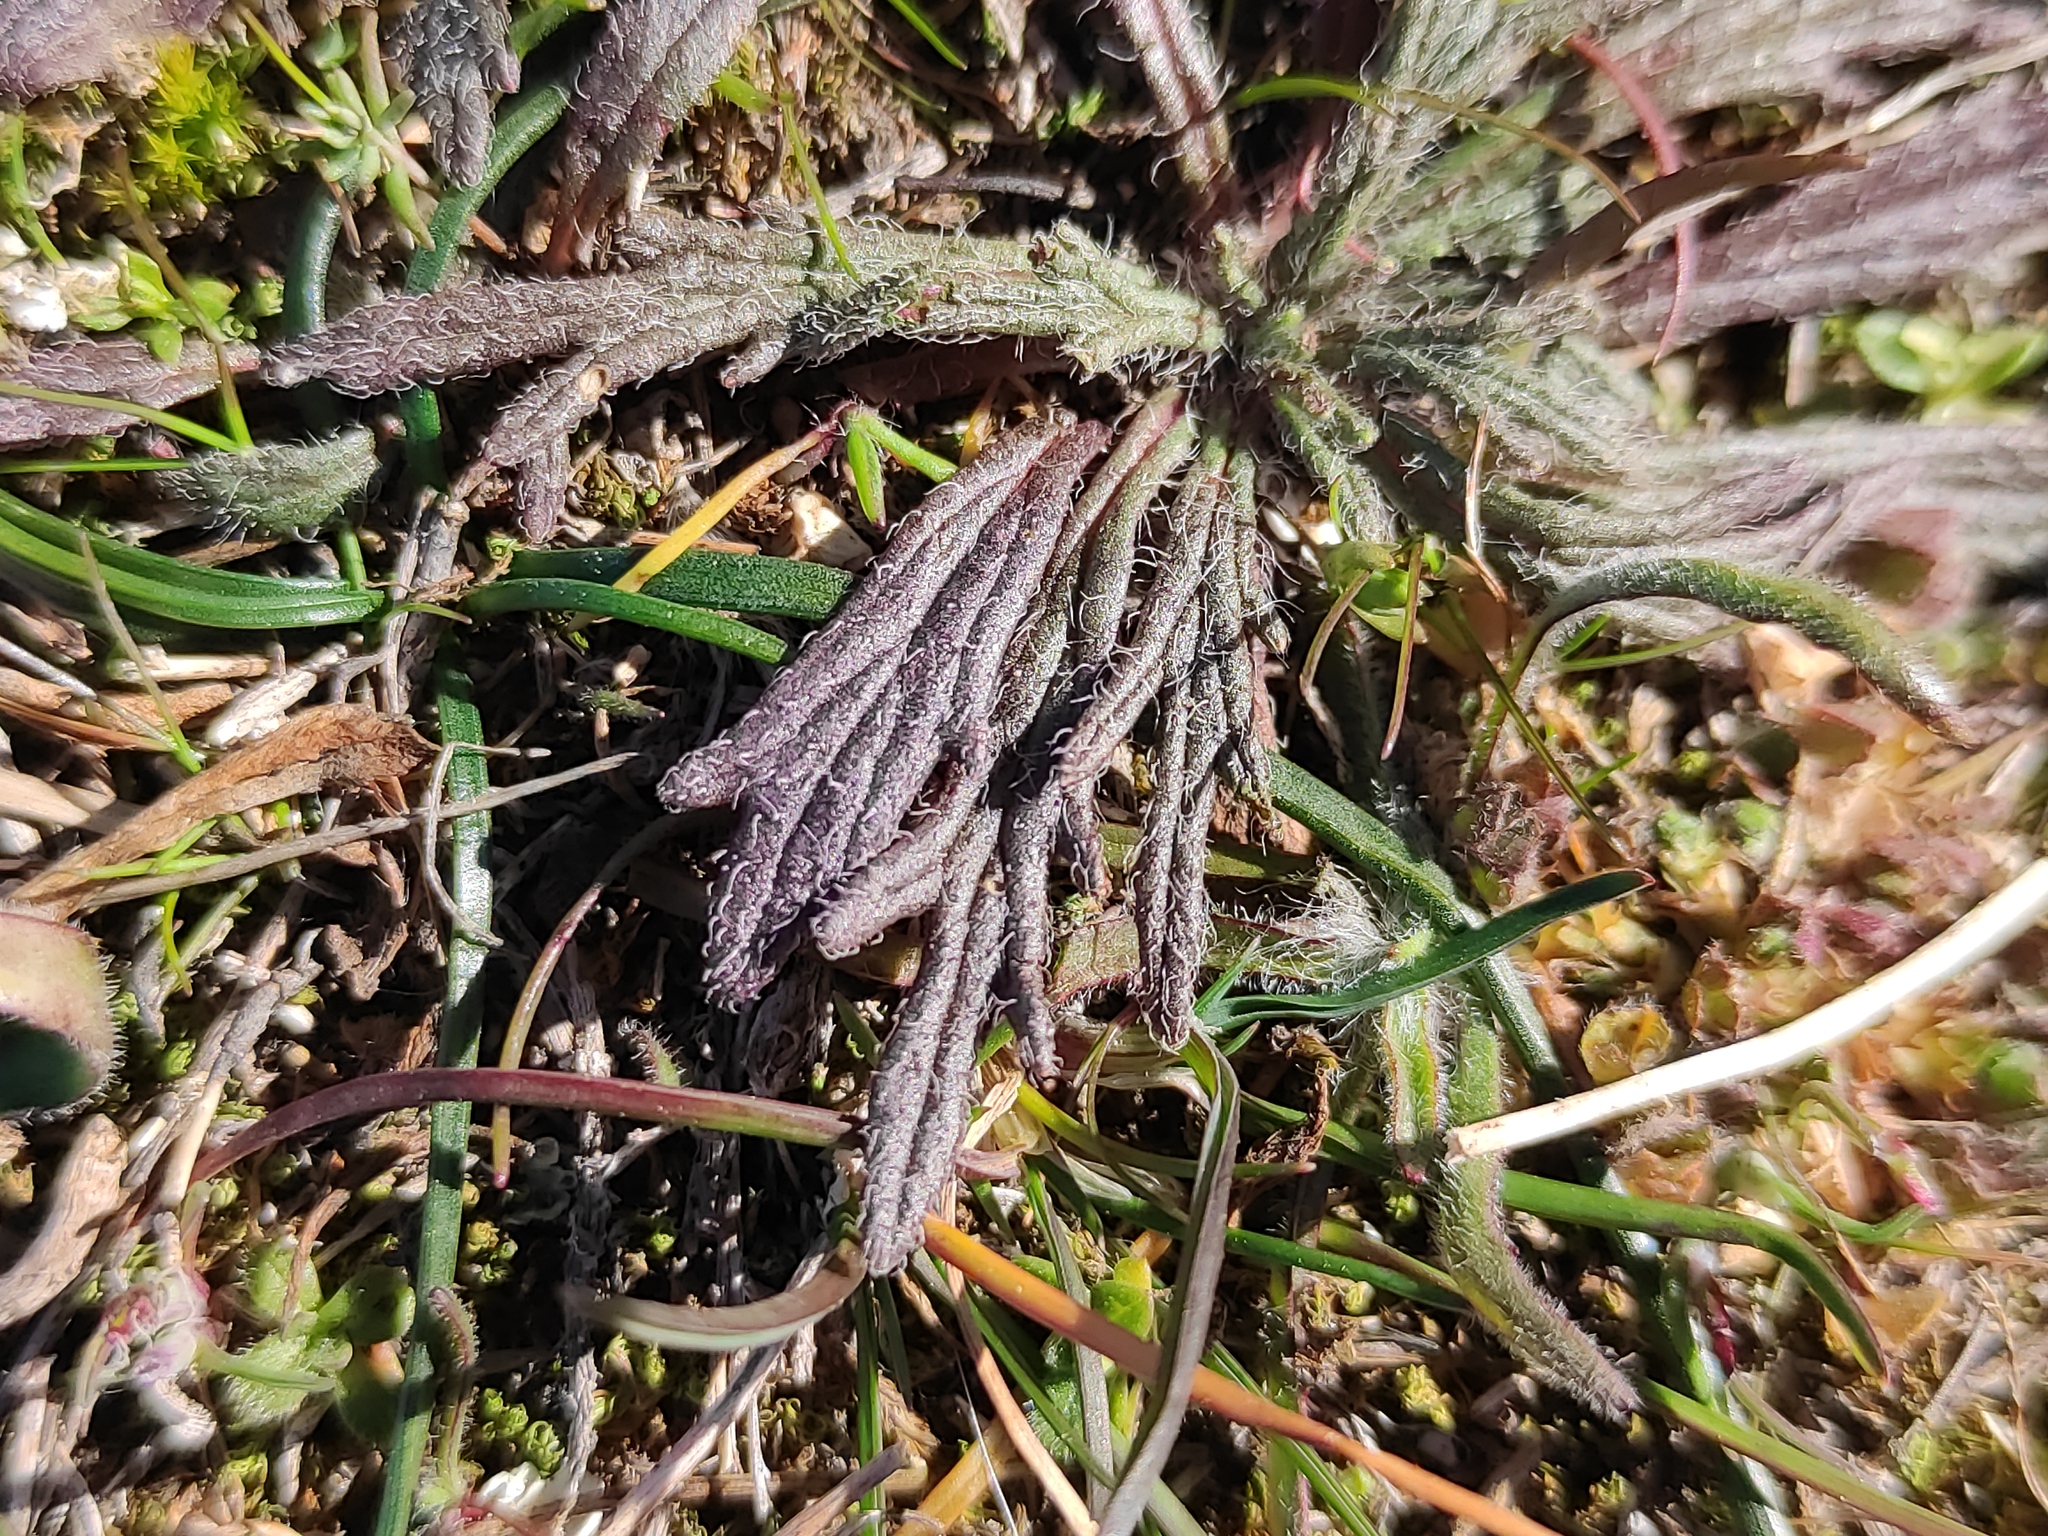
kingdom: Plantae
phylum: Tracheophyta
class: Magnoliopsida
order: Lamiales
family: Lamiaceae
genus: Ajuga
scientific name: Ajuga chamaepitys
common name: Ground-pine
